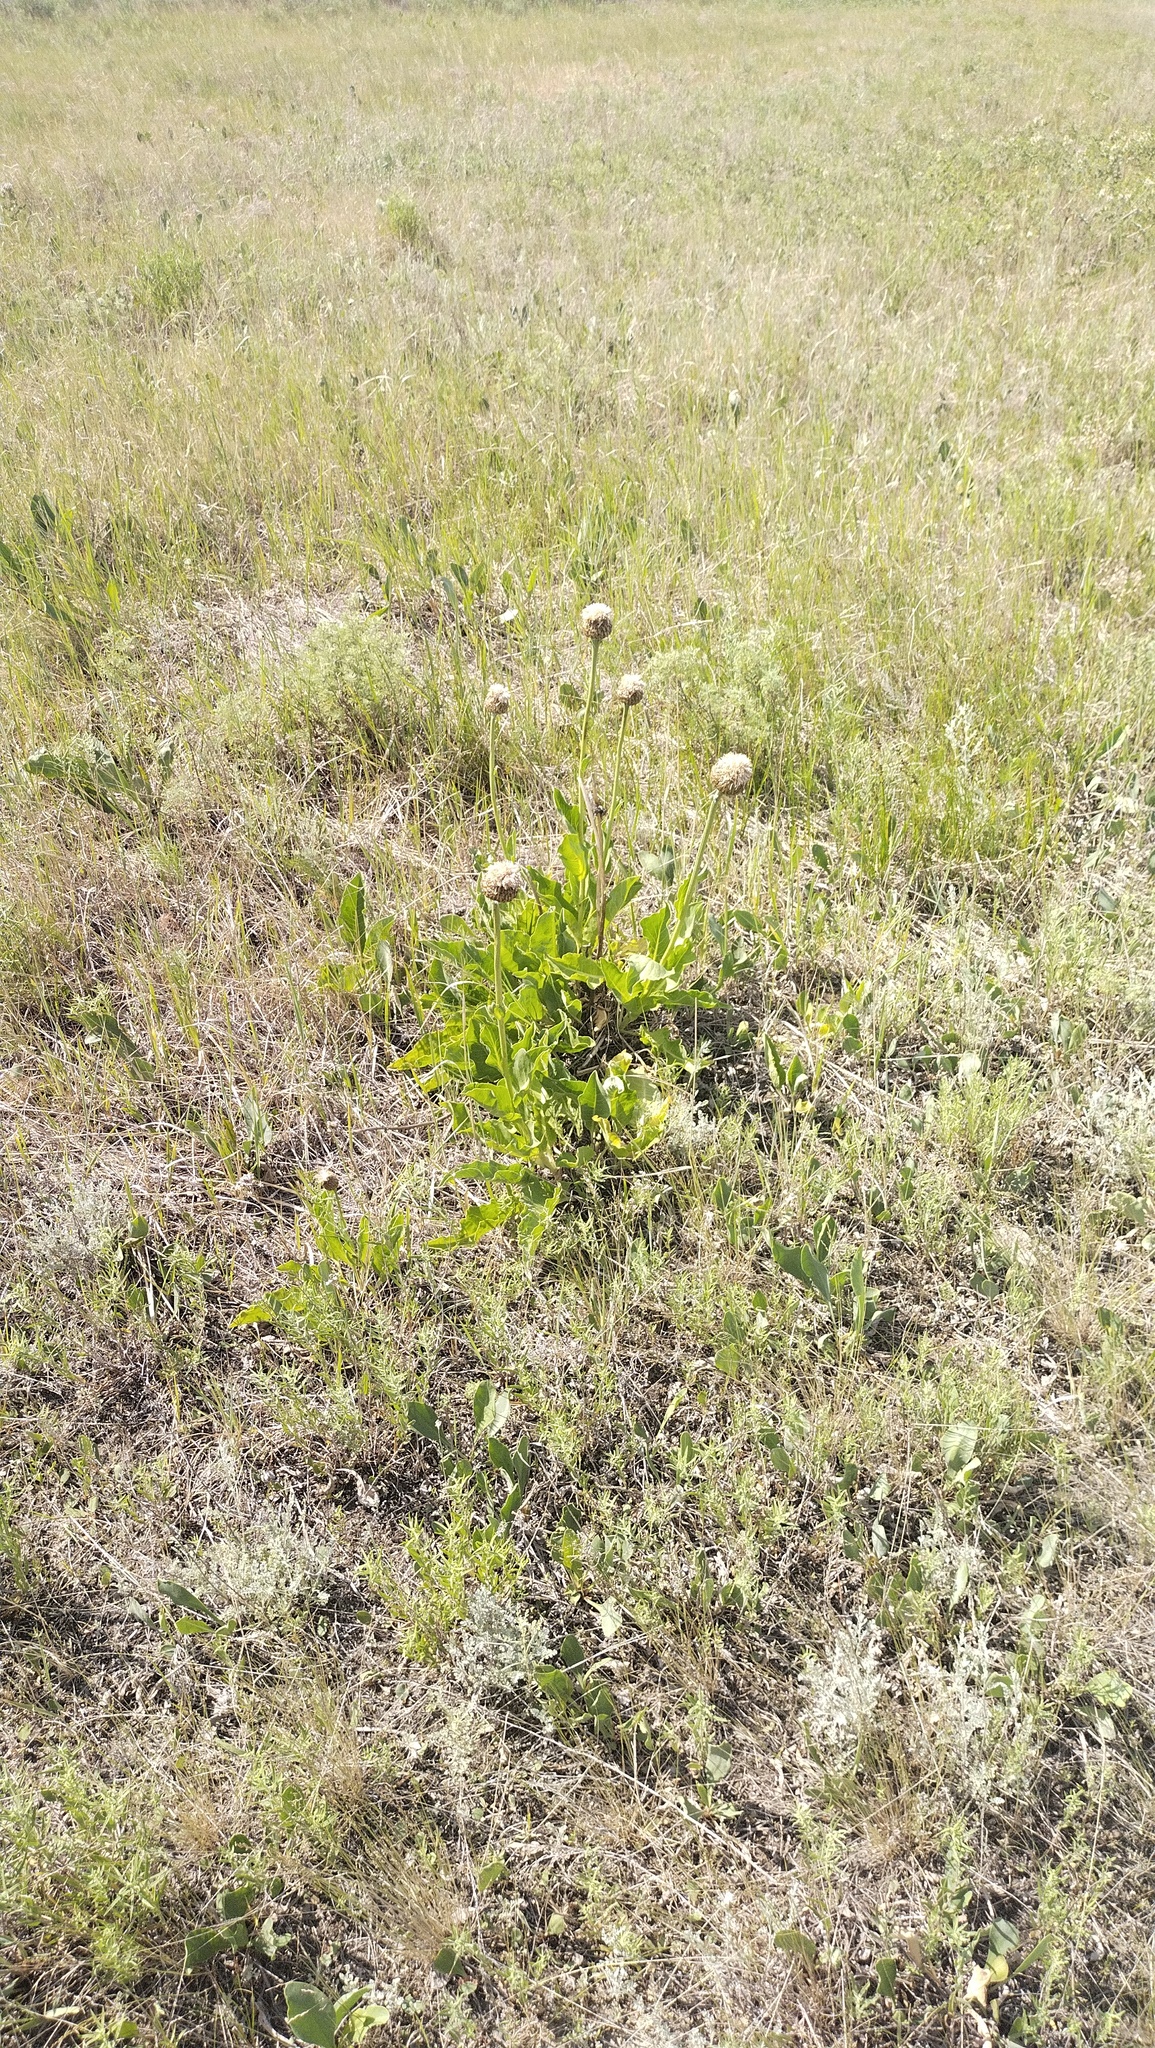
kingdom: Plantae
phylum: Tracheophyta
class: Magnoliopsida
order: Asterales
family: Asteraceae
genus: Leuzea
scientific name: Leuzea carthamoides
